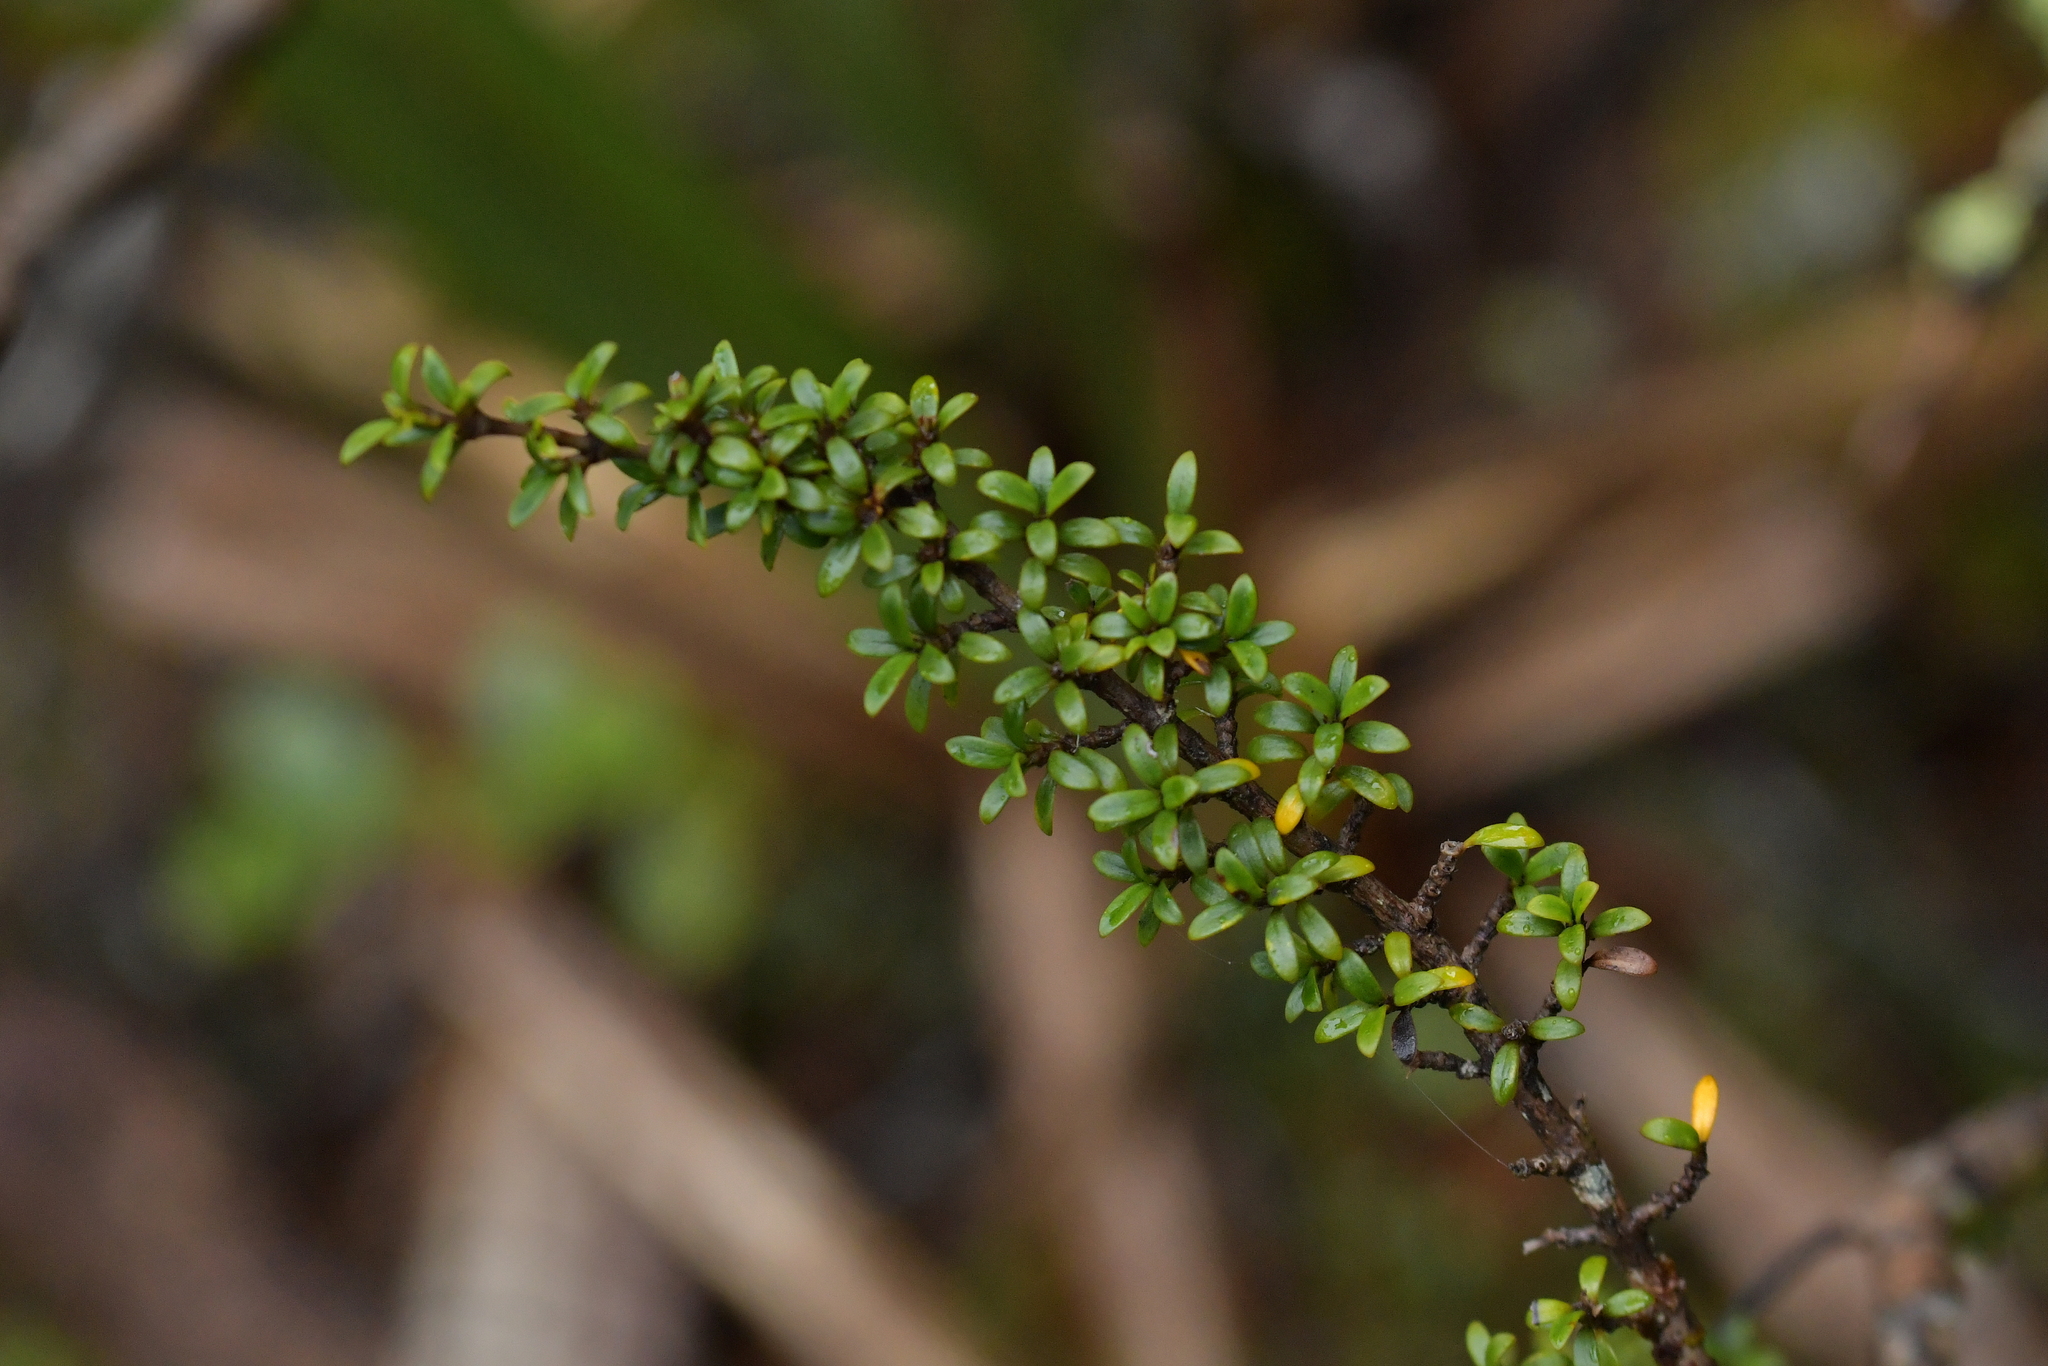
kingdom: Plantae
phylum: Tracheophyta
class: Magnoliopsida
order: Gentianales
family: Rubiaceae
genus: Coprosma
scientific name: Coprosma pseudocuneata
